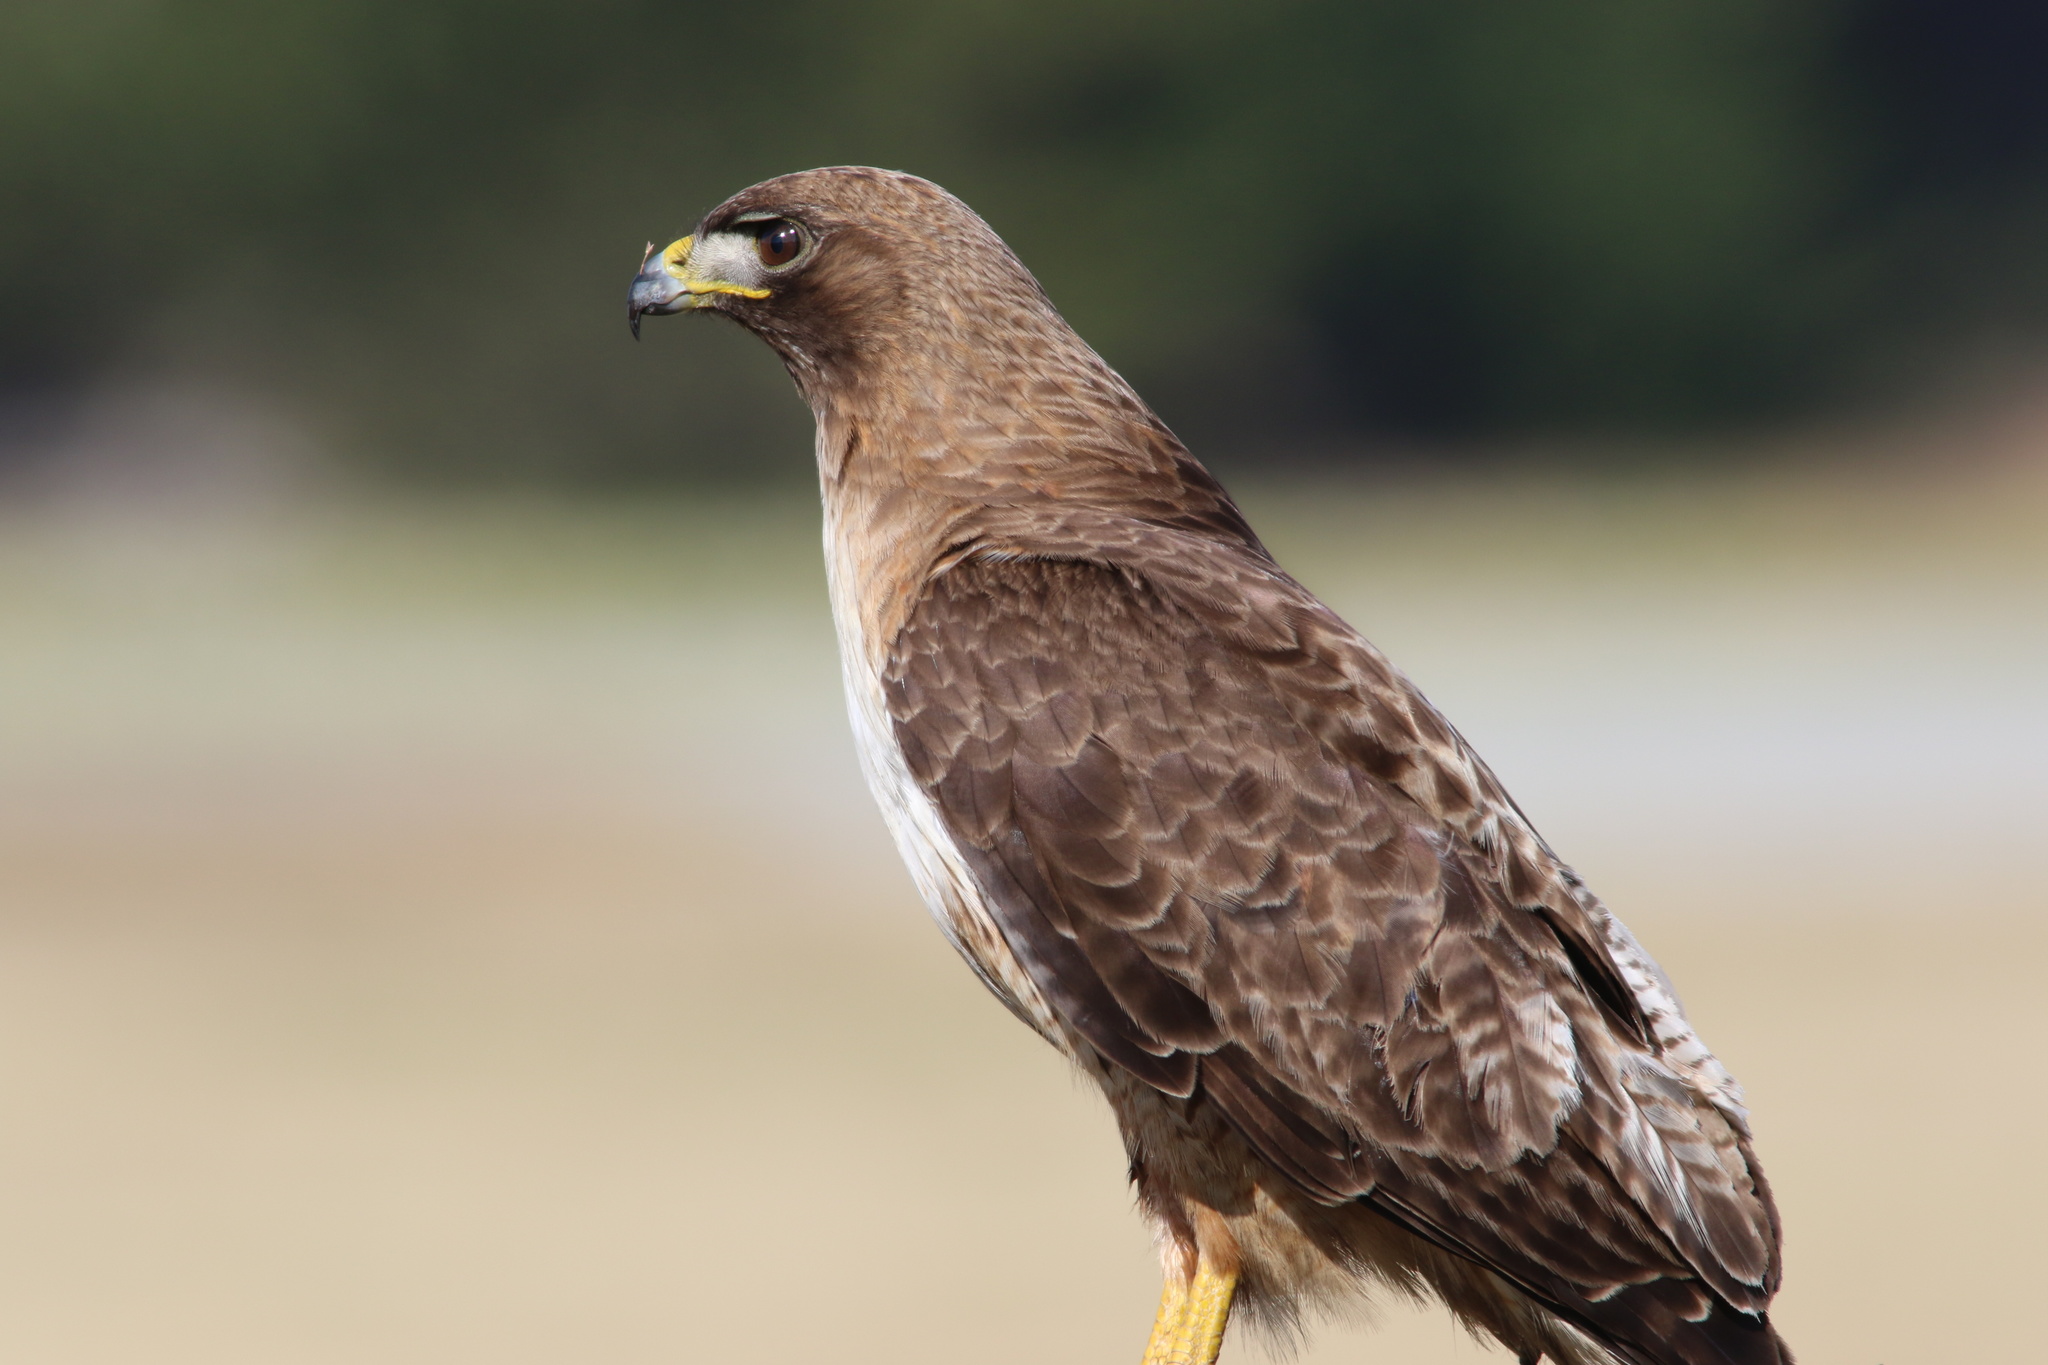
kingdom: Animalia
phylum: Chordata
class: Aves
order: Accipitriformes
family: Accipitridae
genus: Buteo
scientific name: Buteo jamaicensis
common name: Red-tailed hawk
